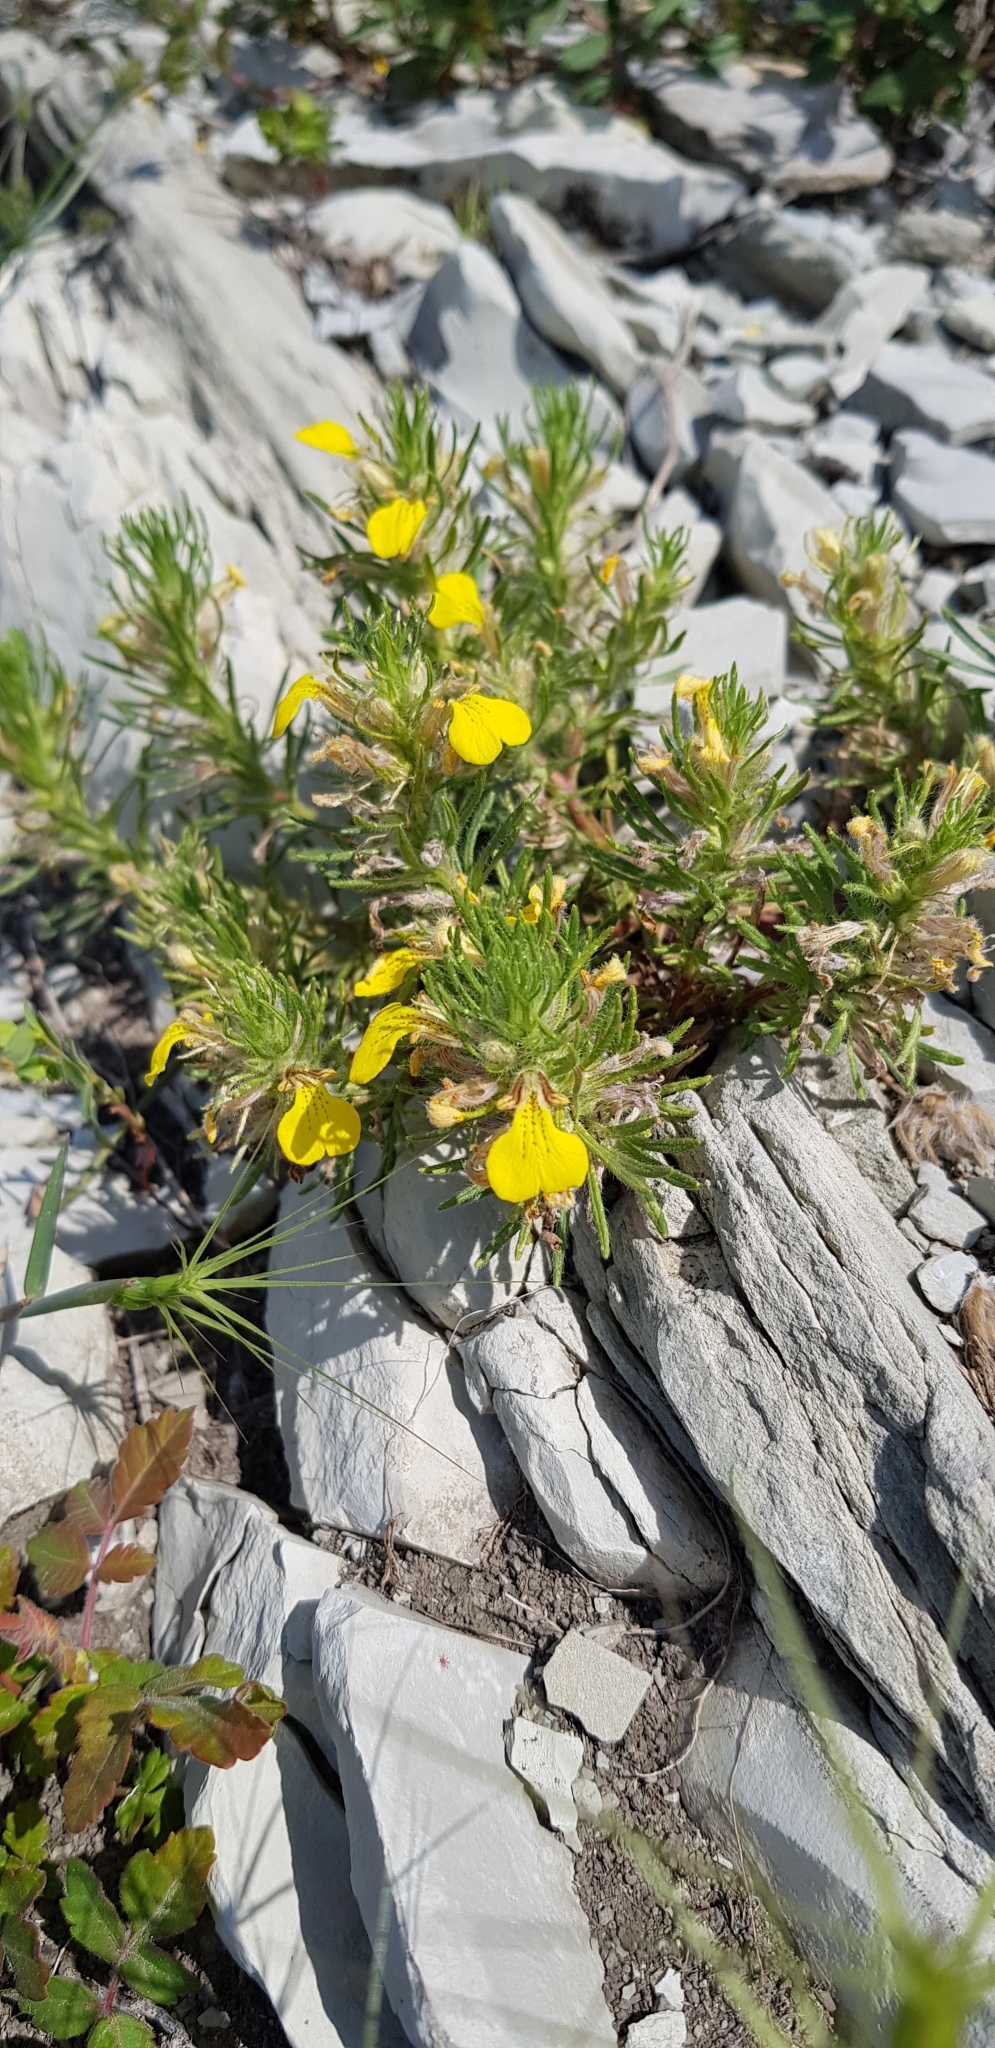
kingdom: Plantae
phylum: Tracheophyta
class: Magnoliopsida
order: Lamiales
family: Lamiaceae
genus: Ajuga
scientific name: Ajuga chamaepitys
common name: Ground-pine
